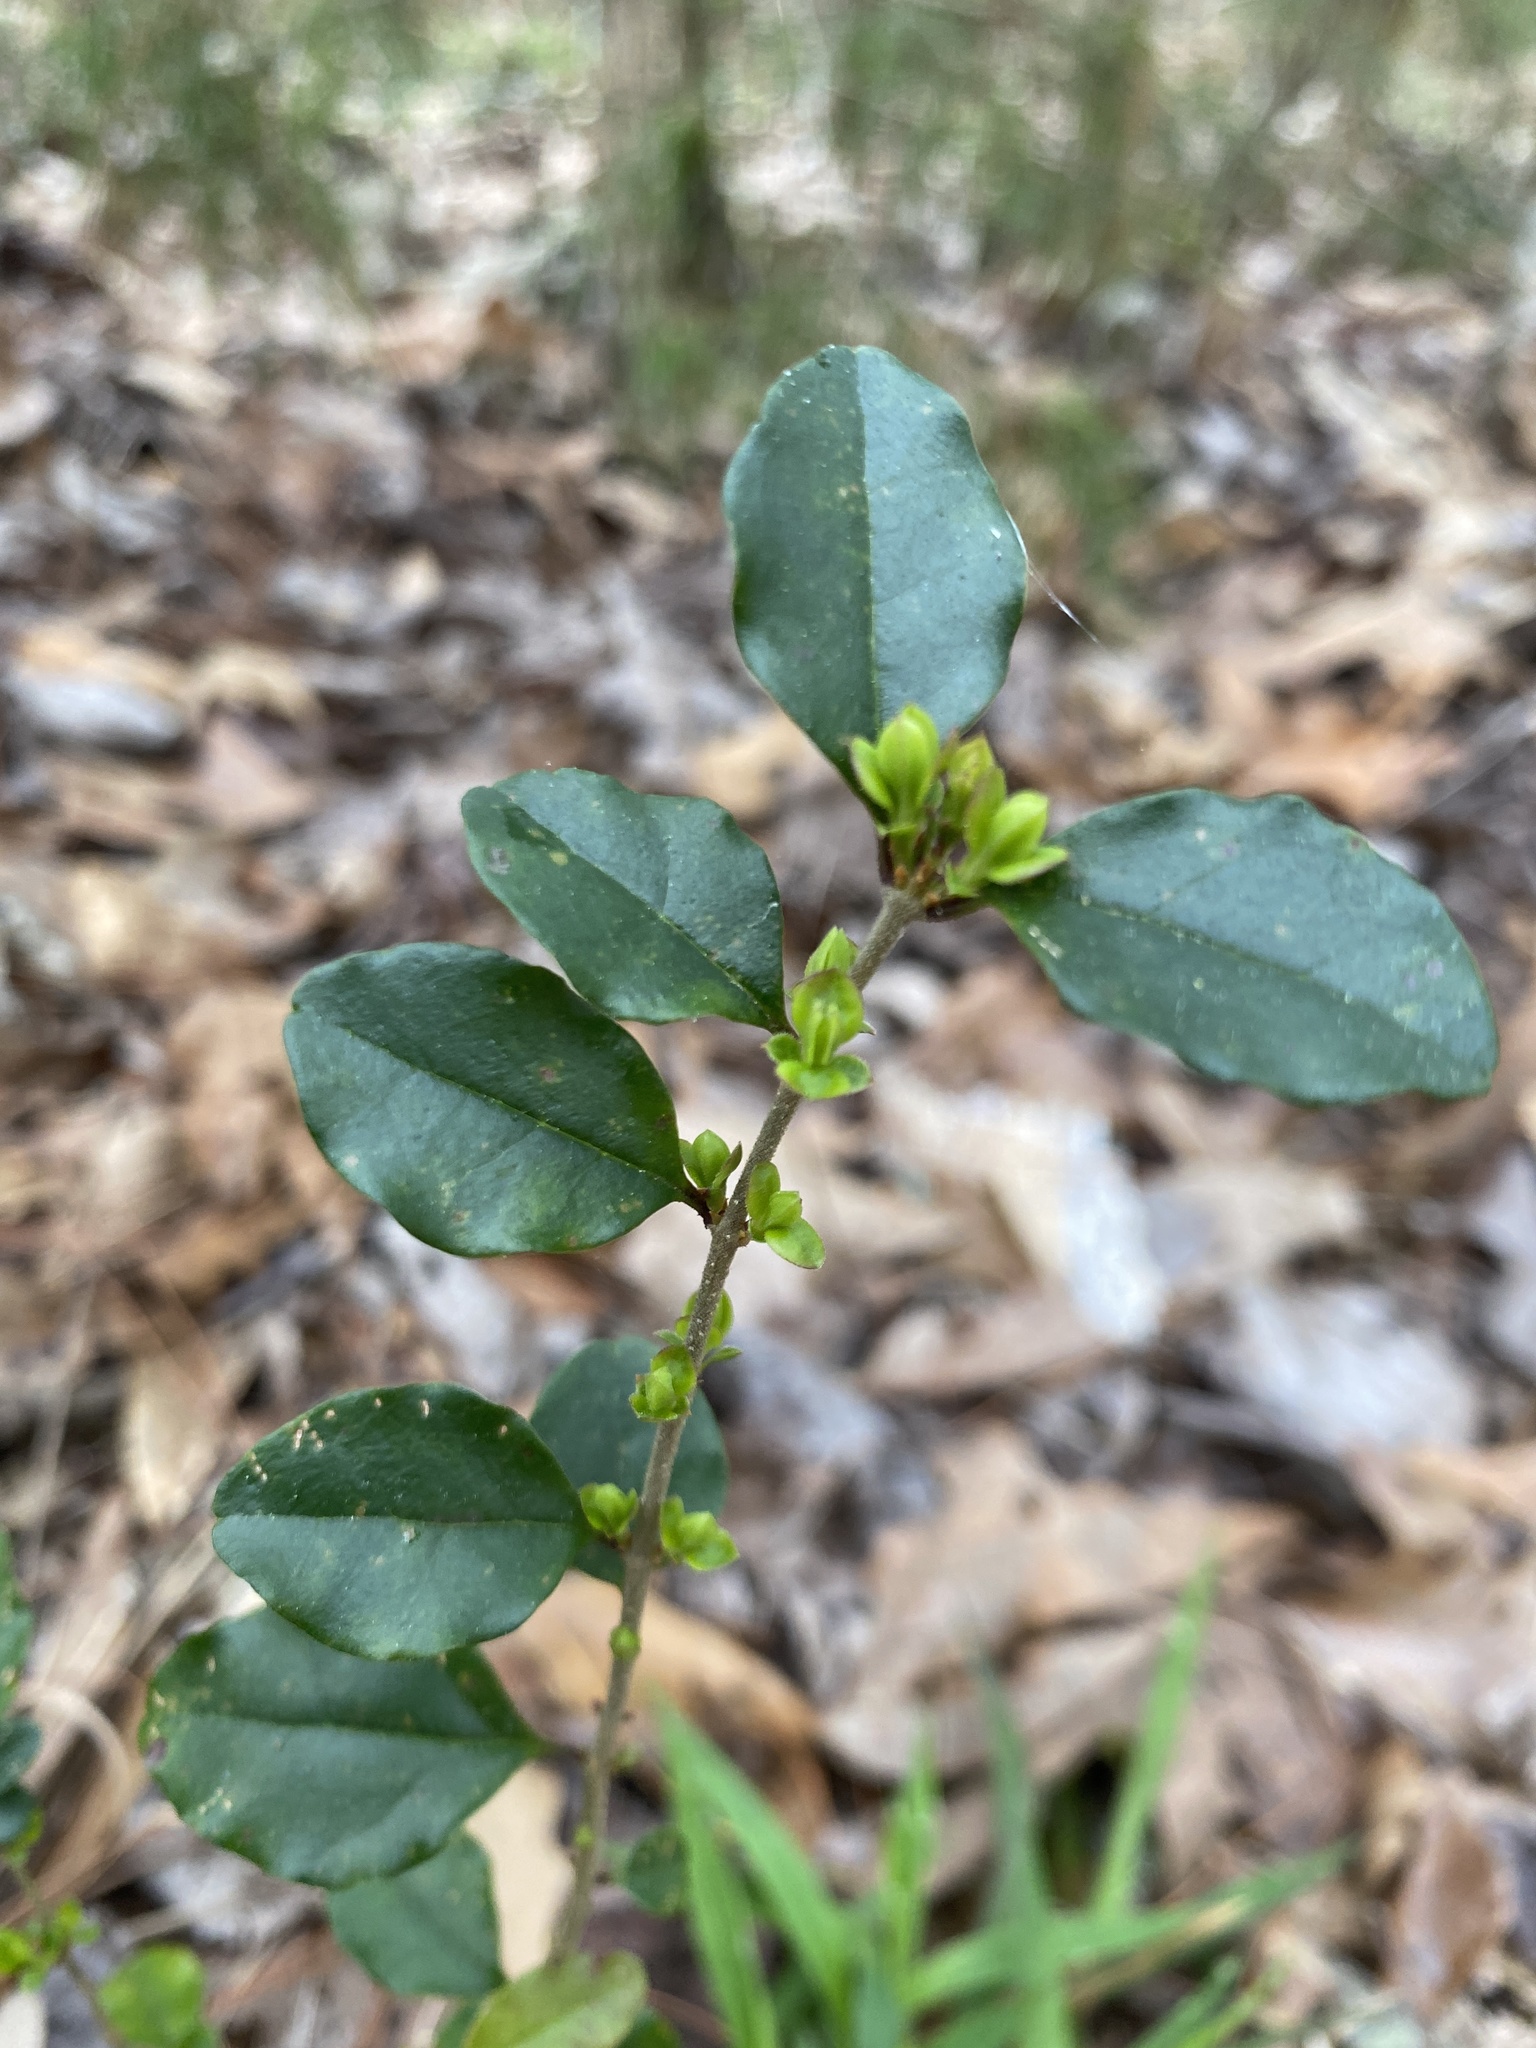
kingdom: Plantae
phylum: Tracheophyta
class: Magnoliopsida
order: Lamiales
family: Oleaceae
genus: Ligustrum
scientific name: Ligustrum sinense
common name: Chinese privet
